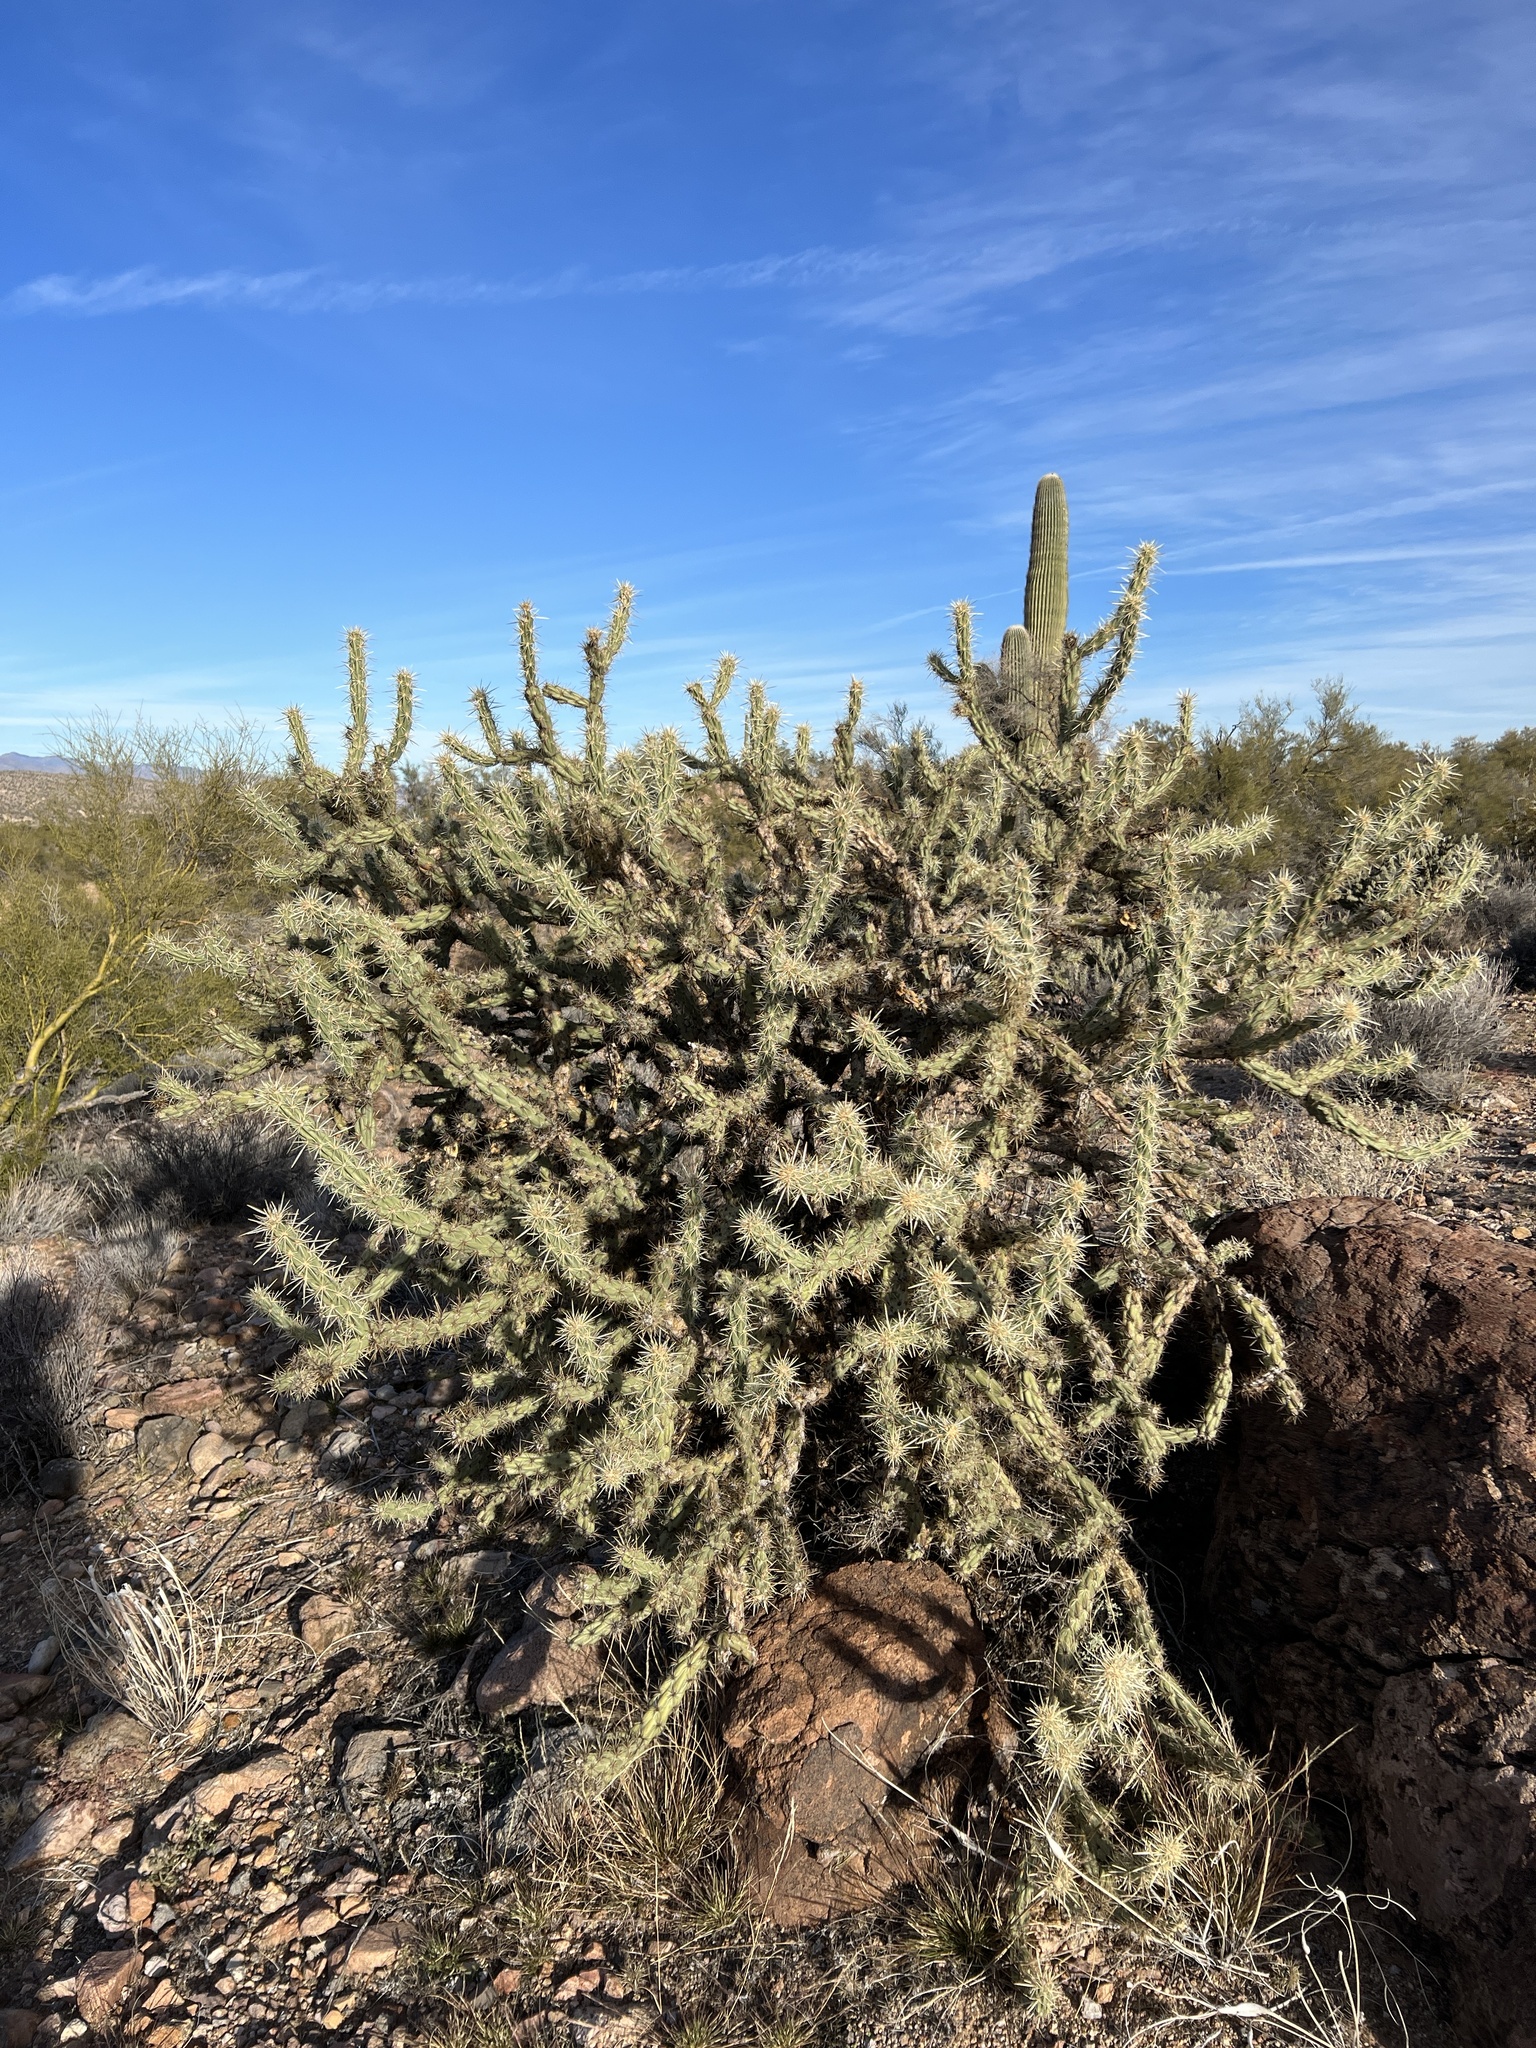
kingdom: Plantae
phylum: Tracheophyta
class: Magnoliopsida
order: Caryophyllales
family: Cactaceae
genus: Cylindropuntia
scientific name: Cylindropuntia acanthocarpa
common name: Buckhorn cholla
